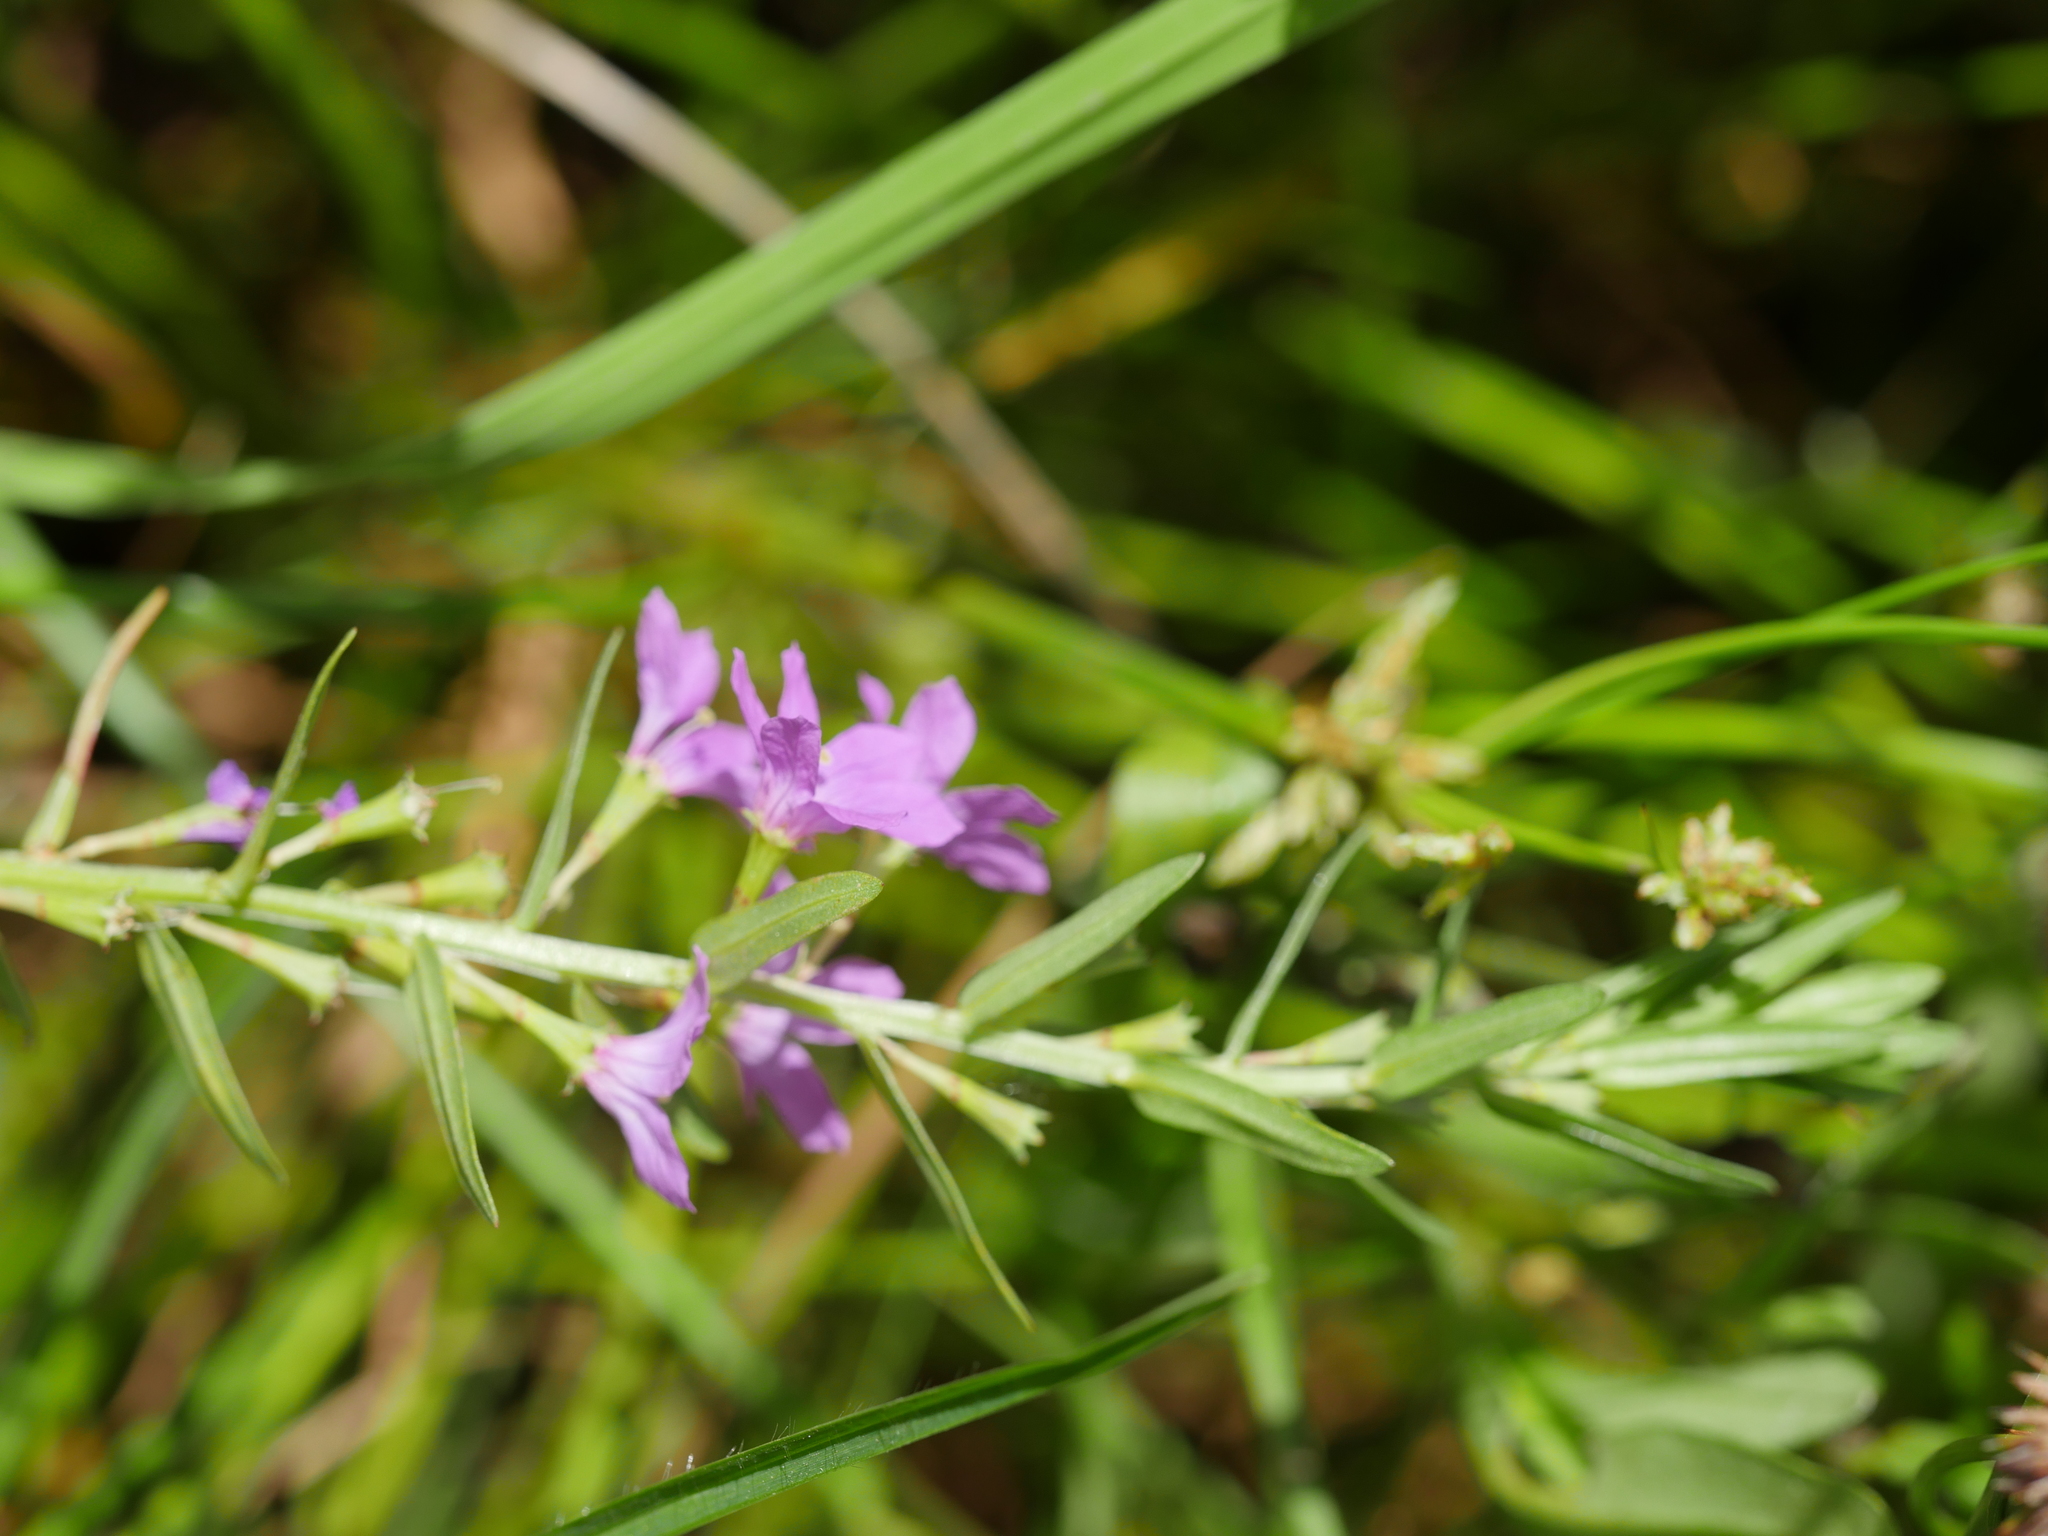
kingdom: Plantae
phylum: Tracheophyta
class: Magnoliopsida
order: Myrtales
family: Lythraceae
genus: Lythrum
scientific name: Lythrum junceum
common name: False grass-poly
